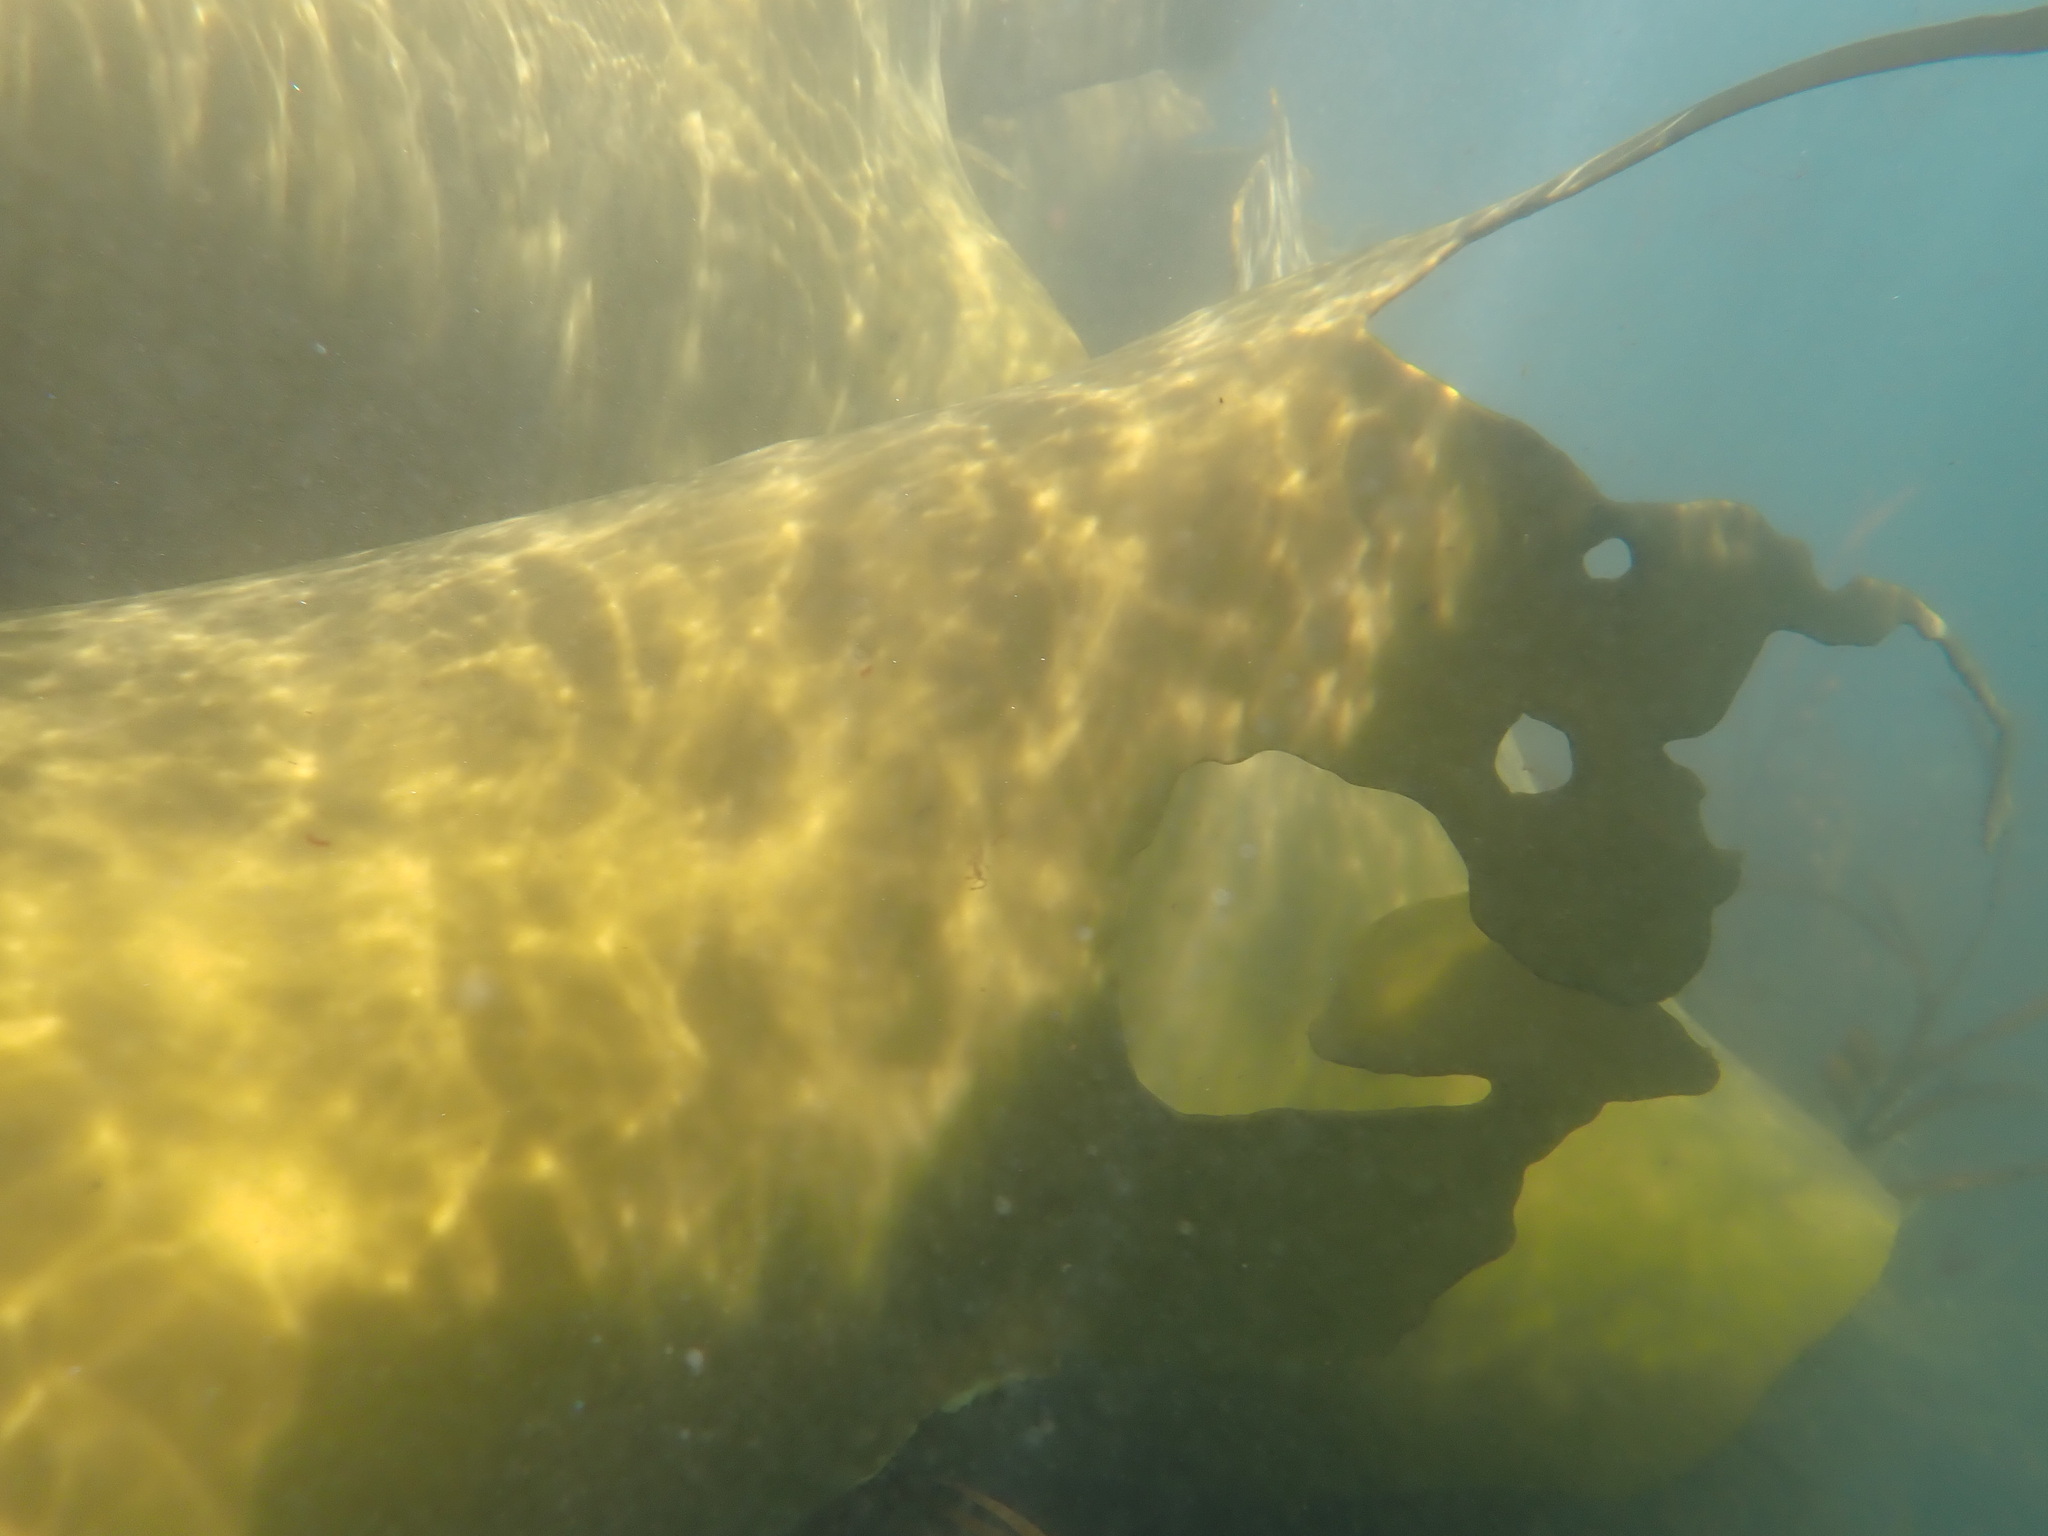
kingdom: Chromista
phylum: Ochrophyta
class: Phaeophyceae
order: Fucales
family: Durvillaeaceae
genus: Durvillaea
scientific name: Durvillaea poha
